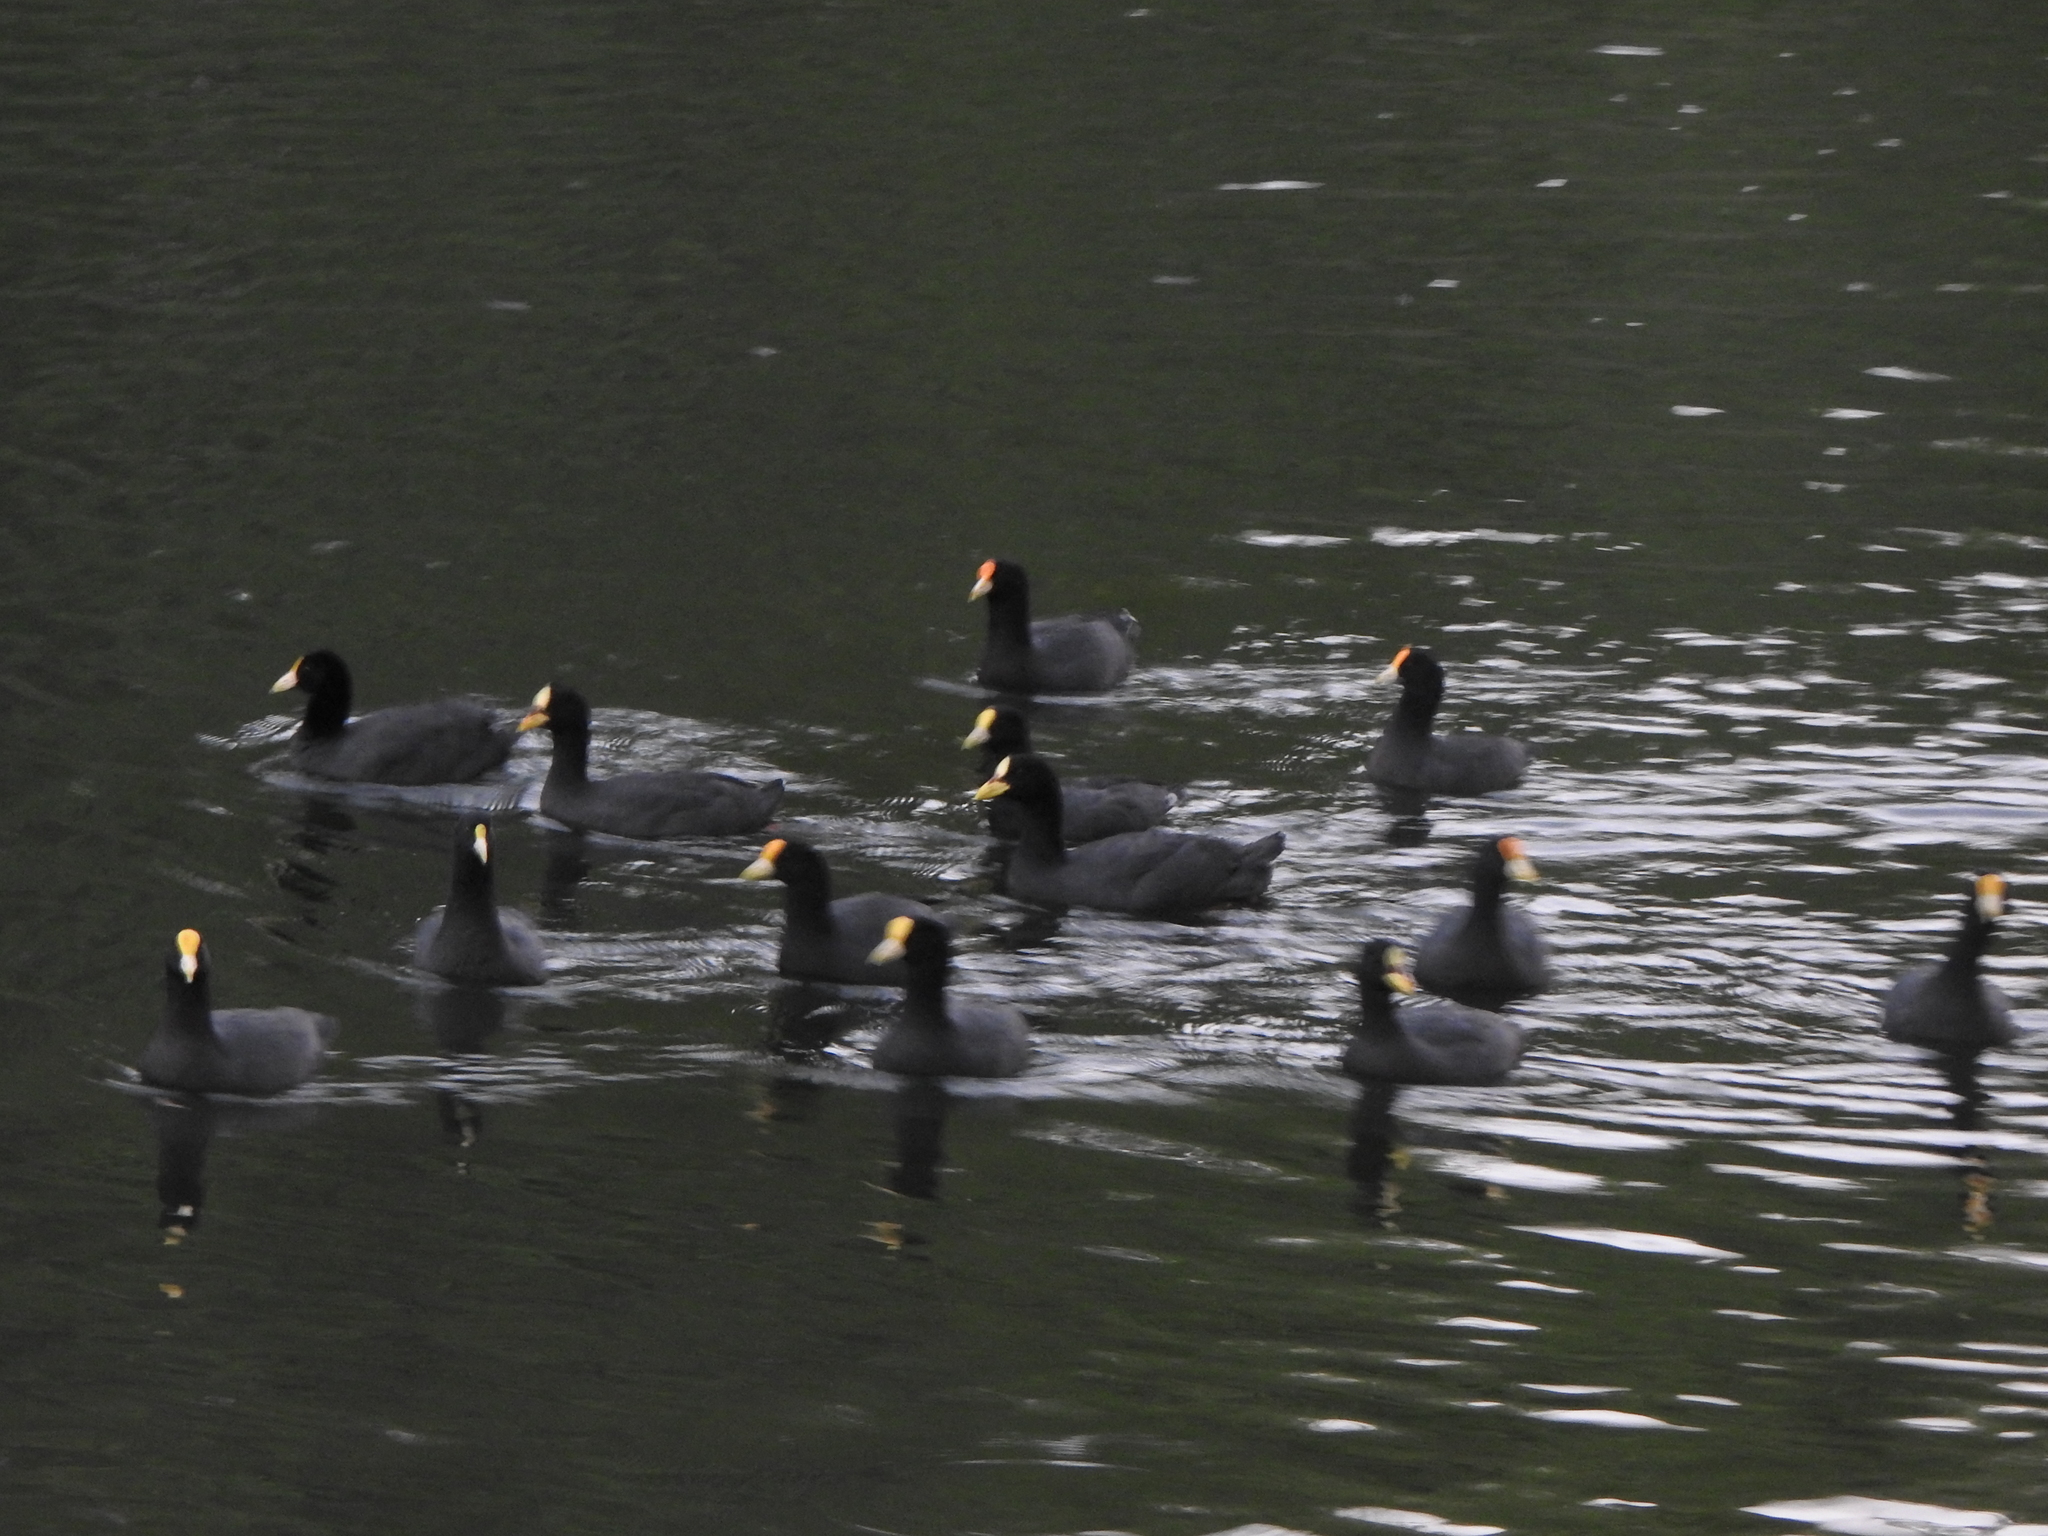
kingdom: Animalia
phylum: Chordata
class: Aves
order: Gruiformes
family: Rallidae
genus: Fulica
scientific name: Fulica leucoptera
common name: White-winged coot
